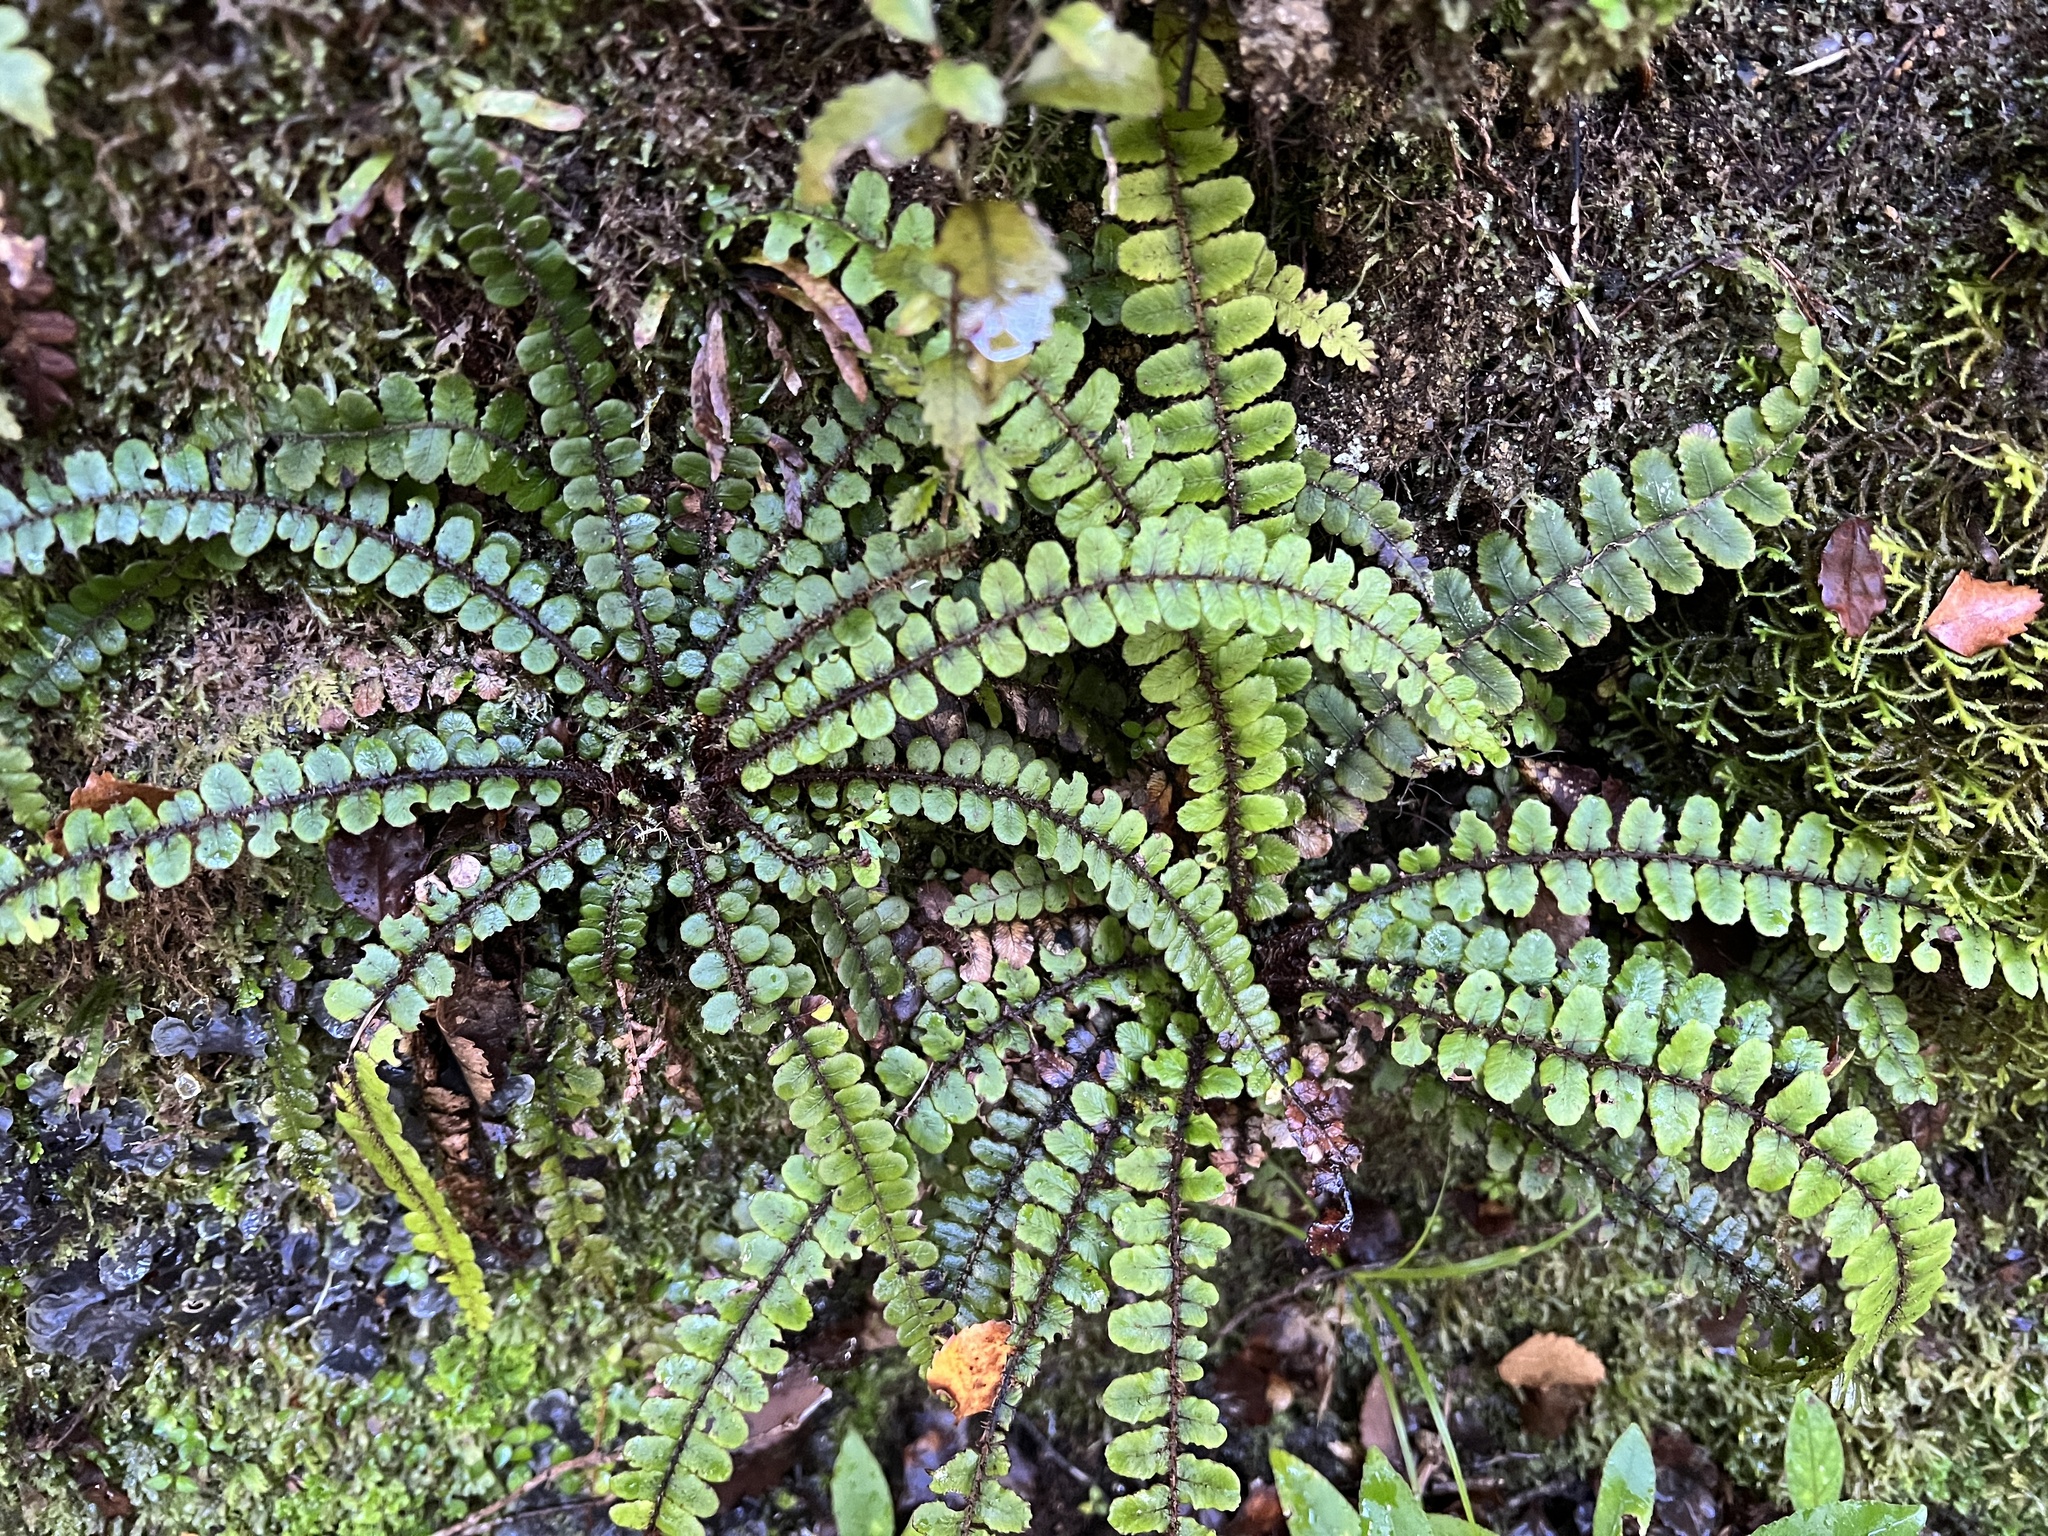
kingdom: Plantae
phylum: Tracheophyta
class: Polypodiopsida
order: Polypodiales
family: Blechnaceae
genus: Cranfillia
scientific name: Cranfillia fluviatilis
